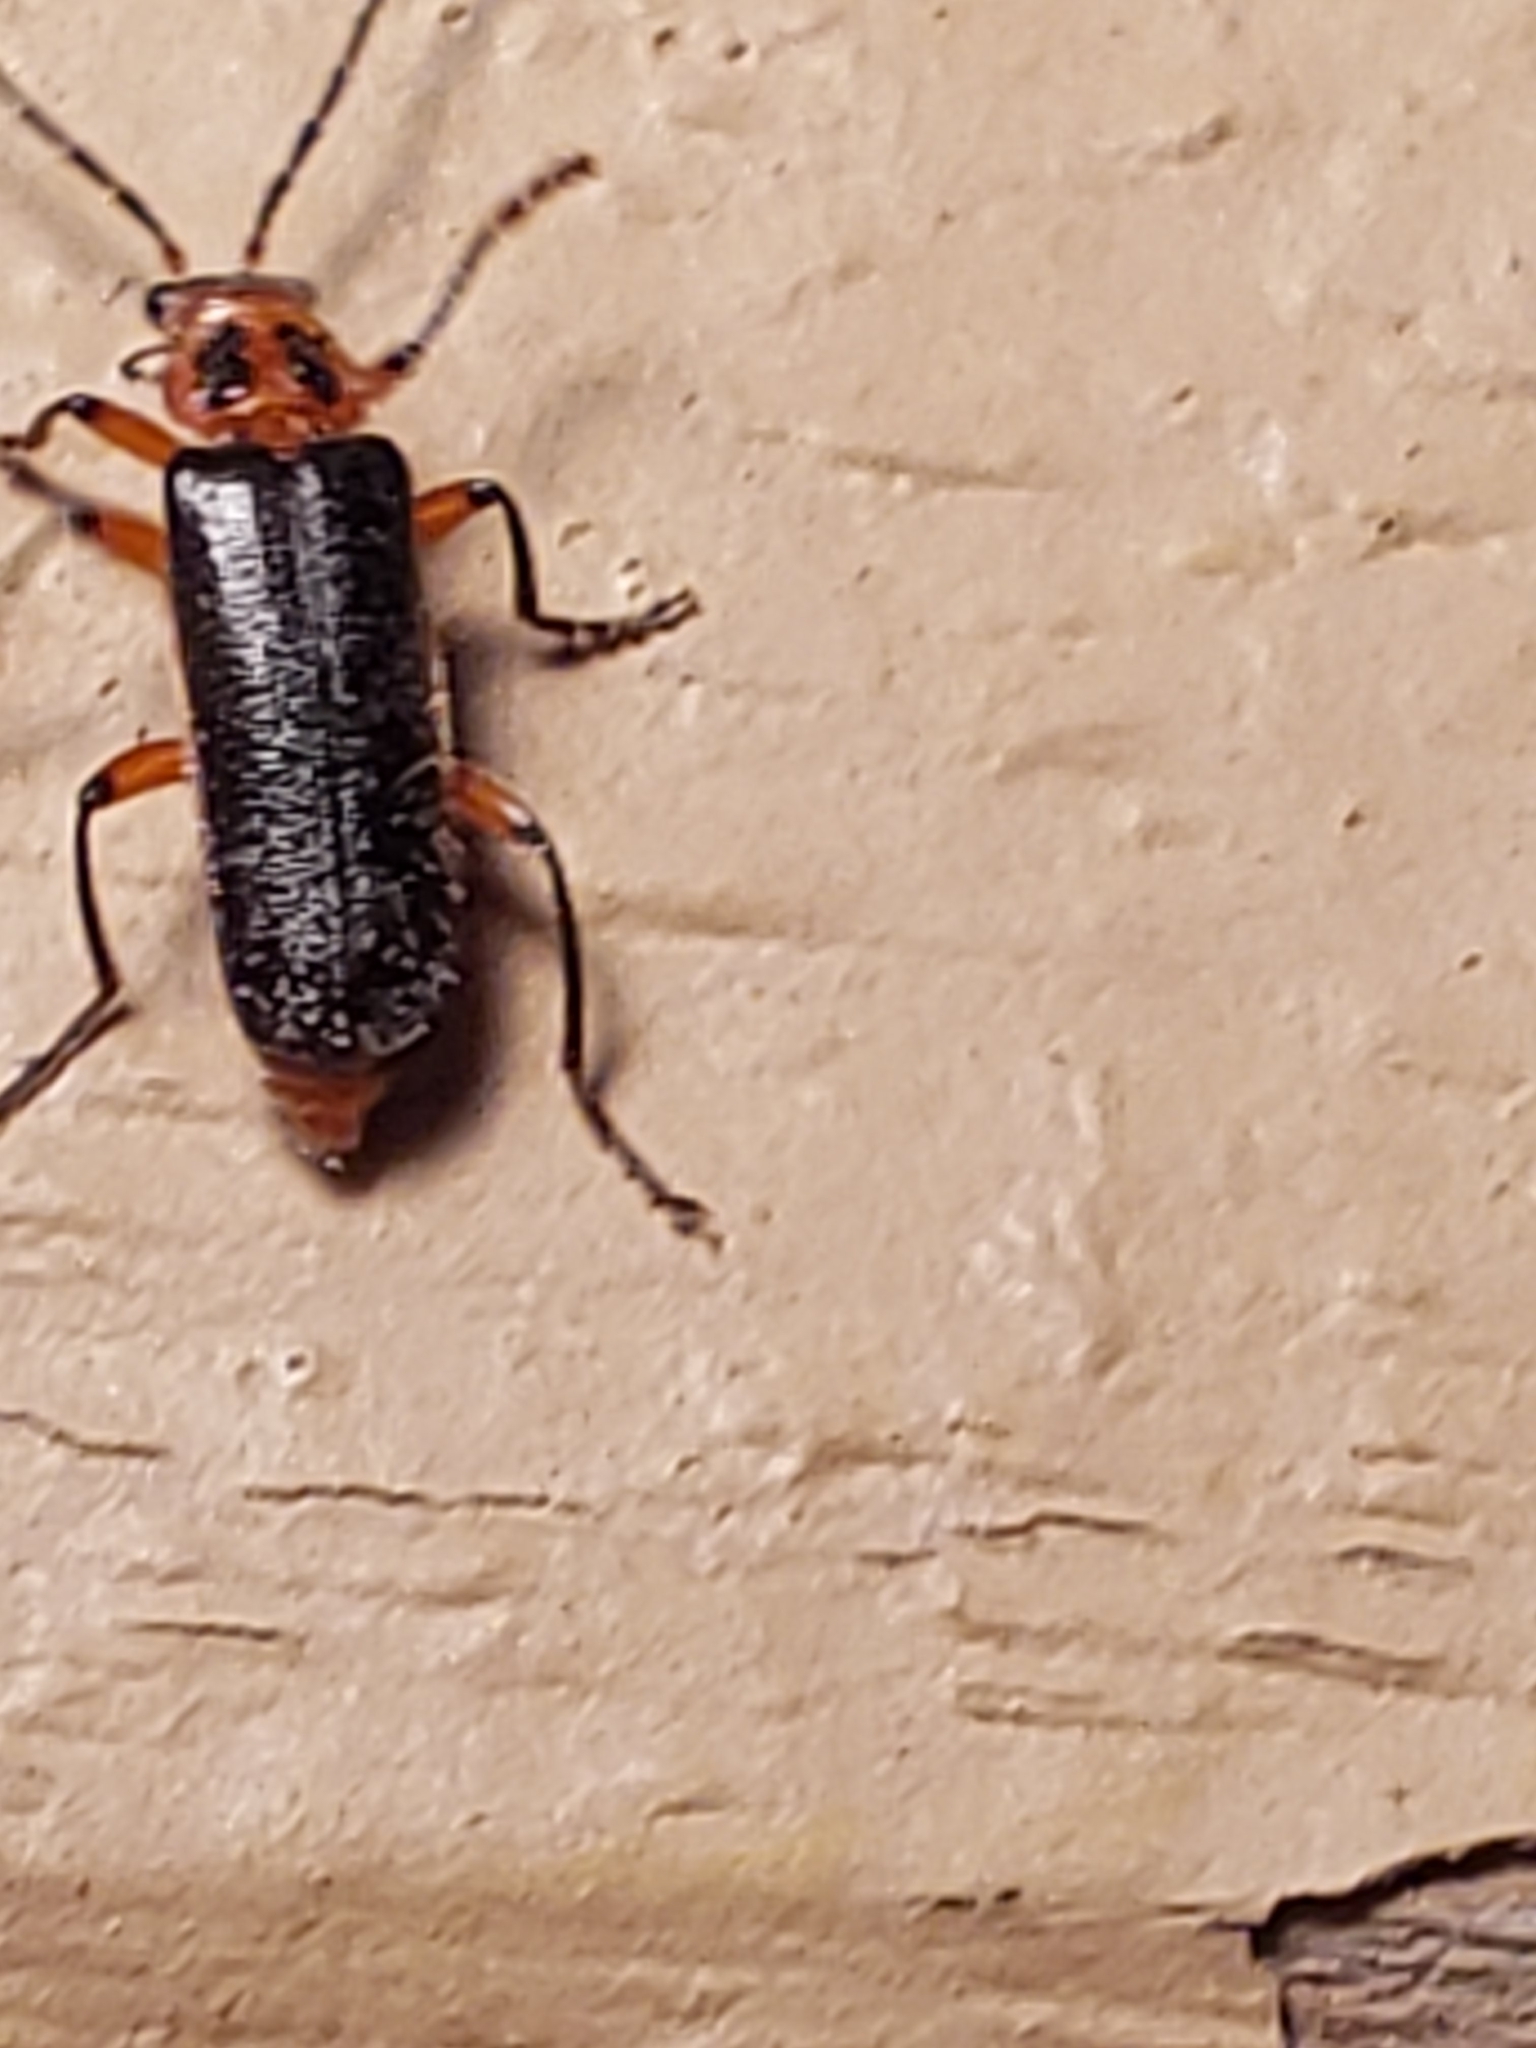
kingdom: Animalia
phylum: Arthropoda
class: Insecta
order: Coleoptera
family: Cantharidae
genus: Atalantycha
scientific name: Atalantycha bilineata
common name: Two-lined leatherwing
